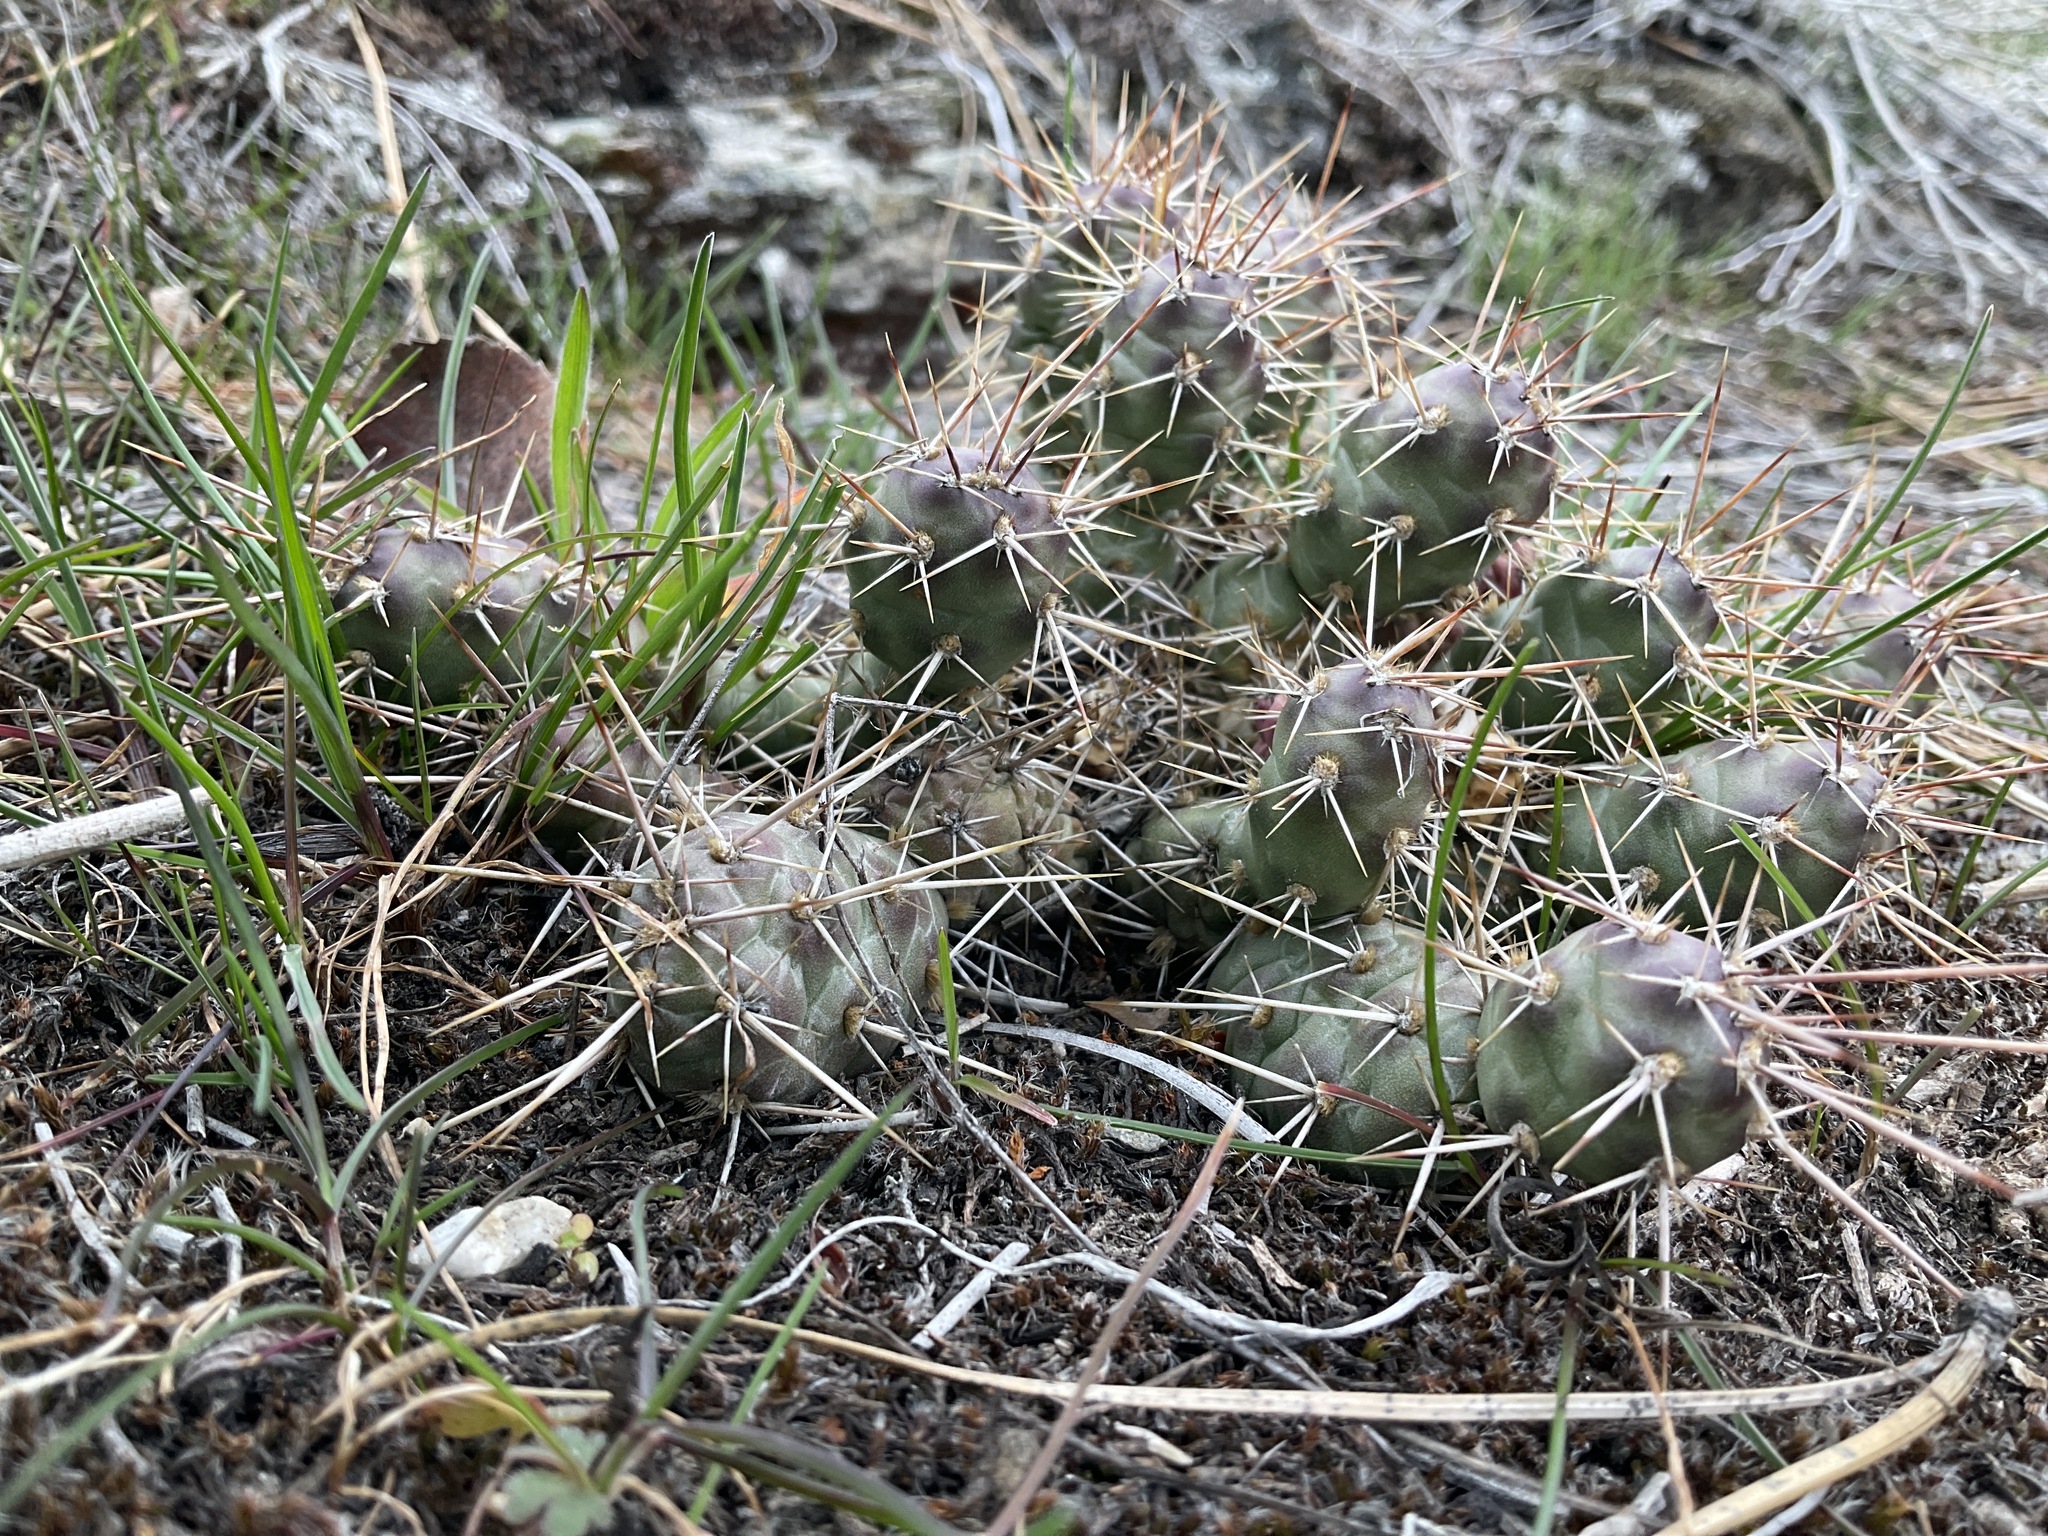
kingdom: Plantae
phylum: Tracheophyta
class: Magnoliopsida
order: Caryophyllales
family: Cactaceae
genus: Opuntia
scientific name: Opuntia fragilis
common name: Brittle cactus
